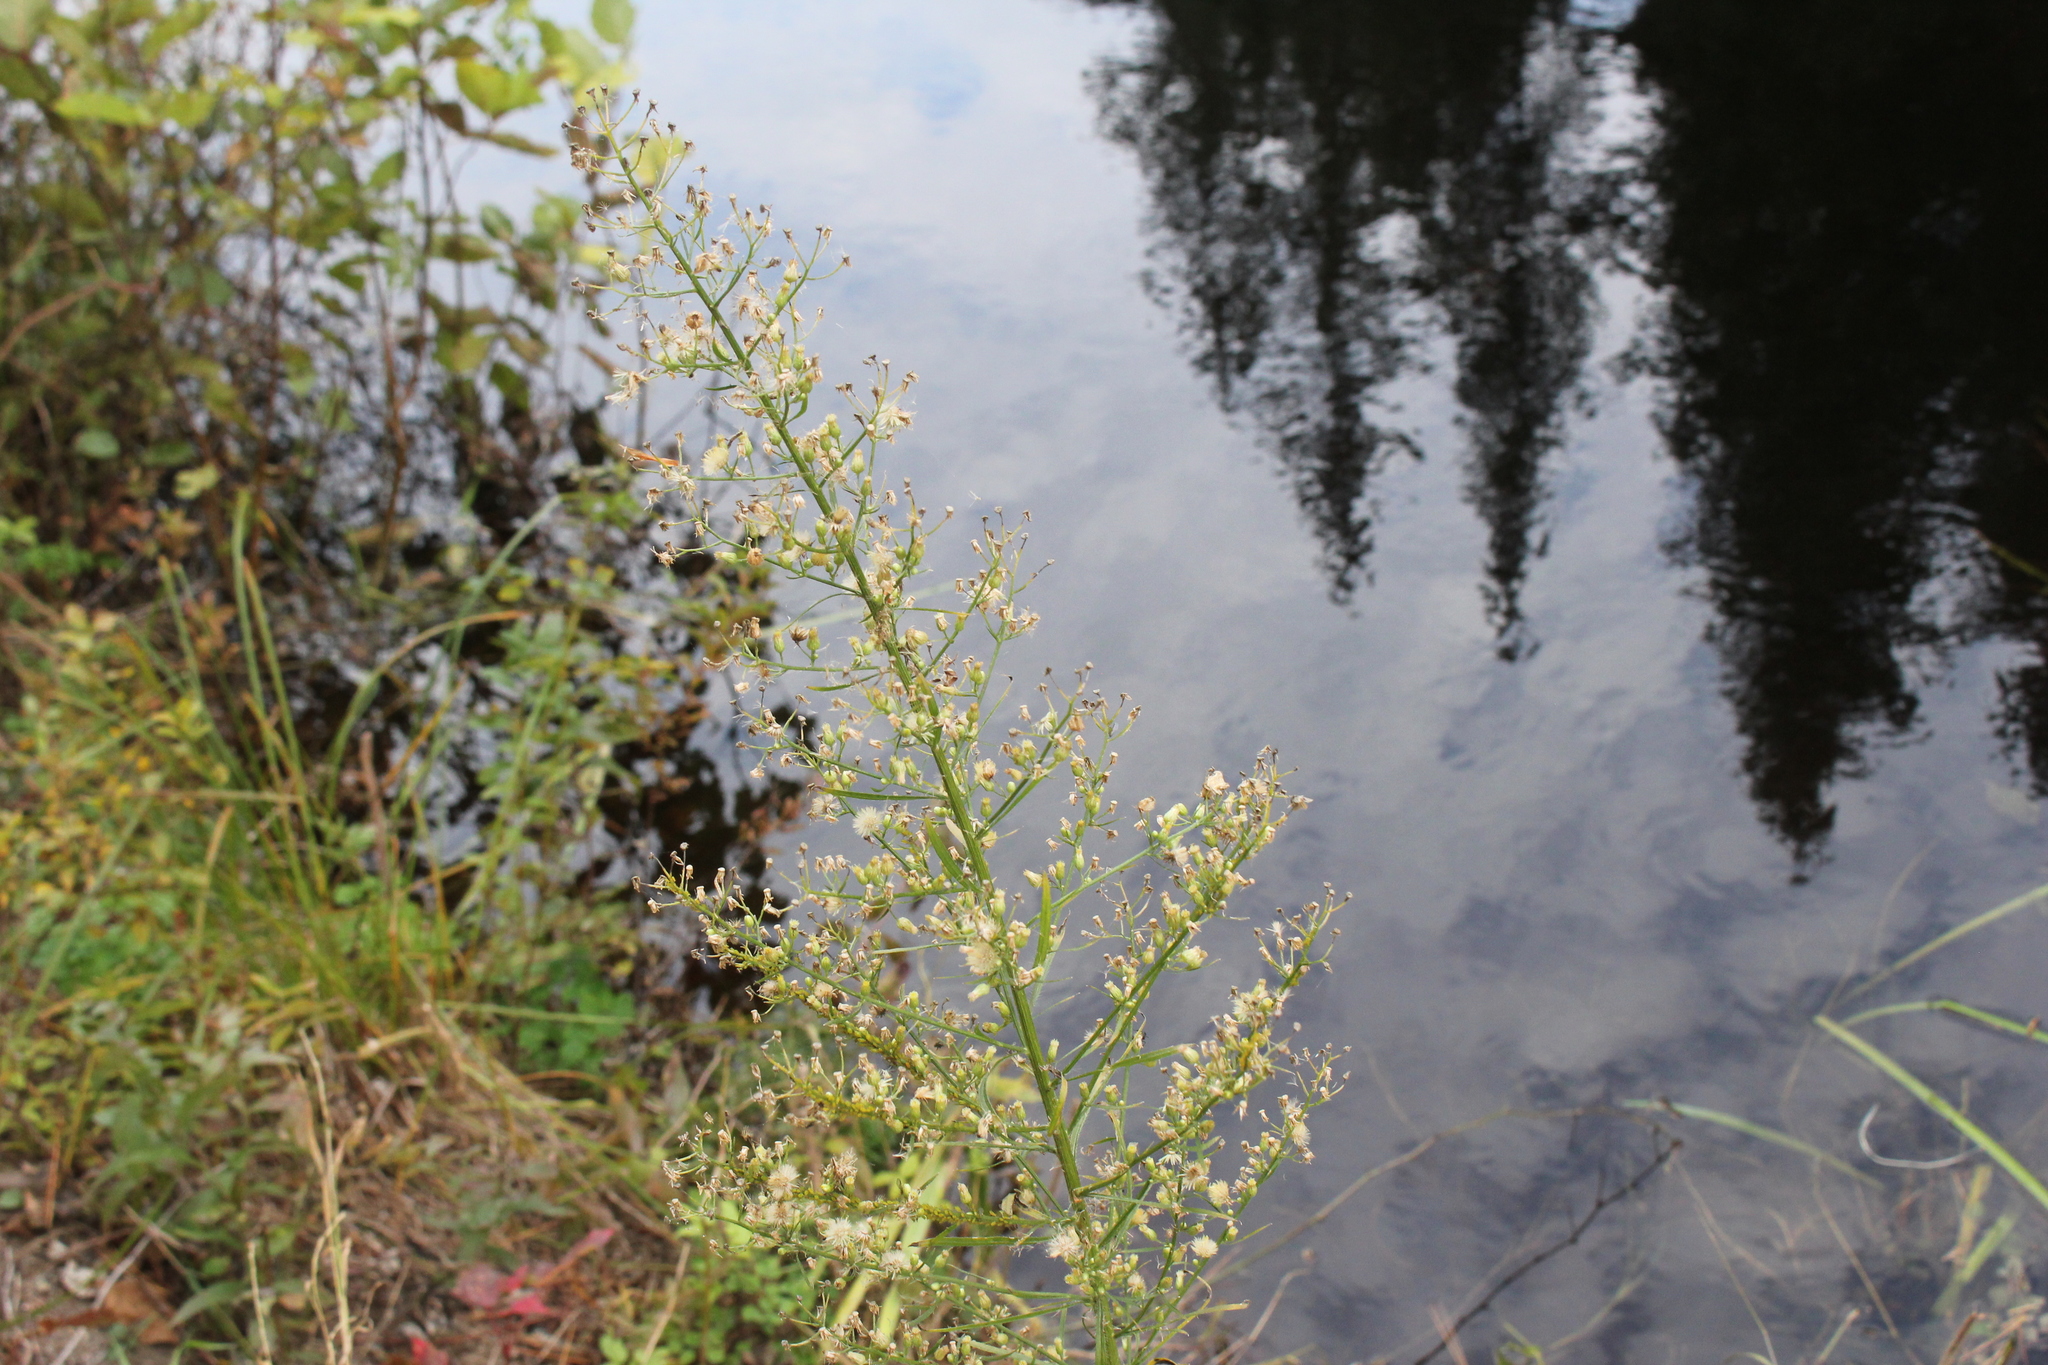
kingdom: Plantae
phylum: Tracheophyta
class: Magnoliopsida
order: Asterales
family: Asteraceae
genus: Erigeron
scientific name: Erigeron canadensis
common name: Canadian fleabane
